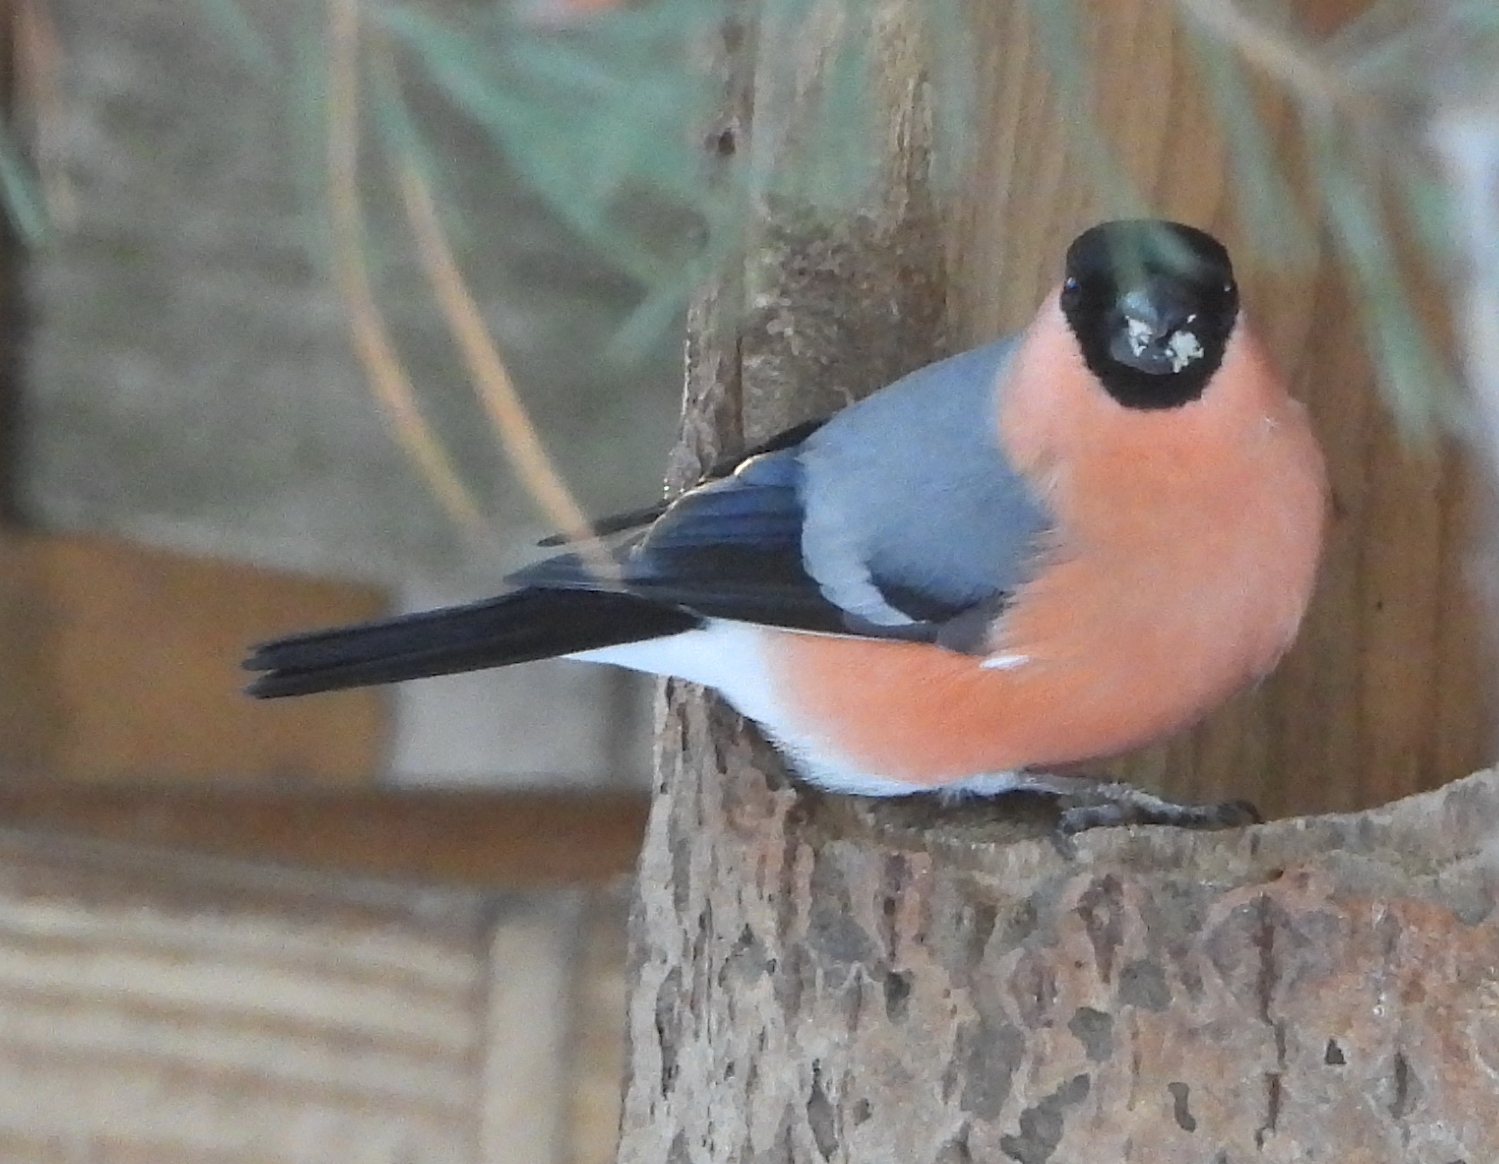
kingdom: Animalia
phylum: Chordata
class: Aves
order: Passeriformes
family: Fringillidae
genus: Pyrrhula
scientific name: Pyrrhula pyrrhula
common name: Eurasian bullfinch
